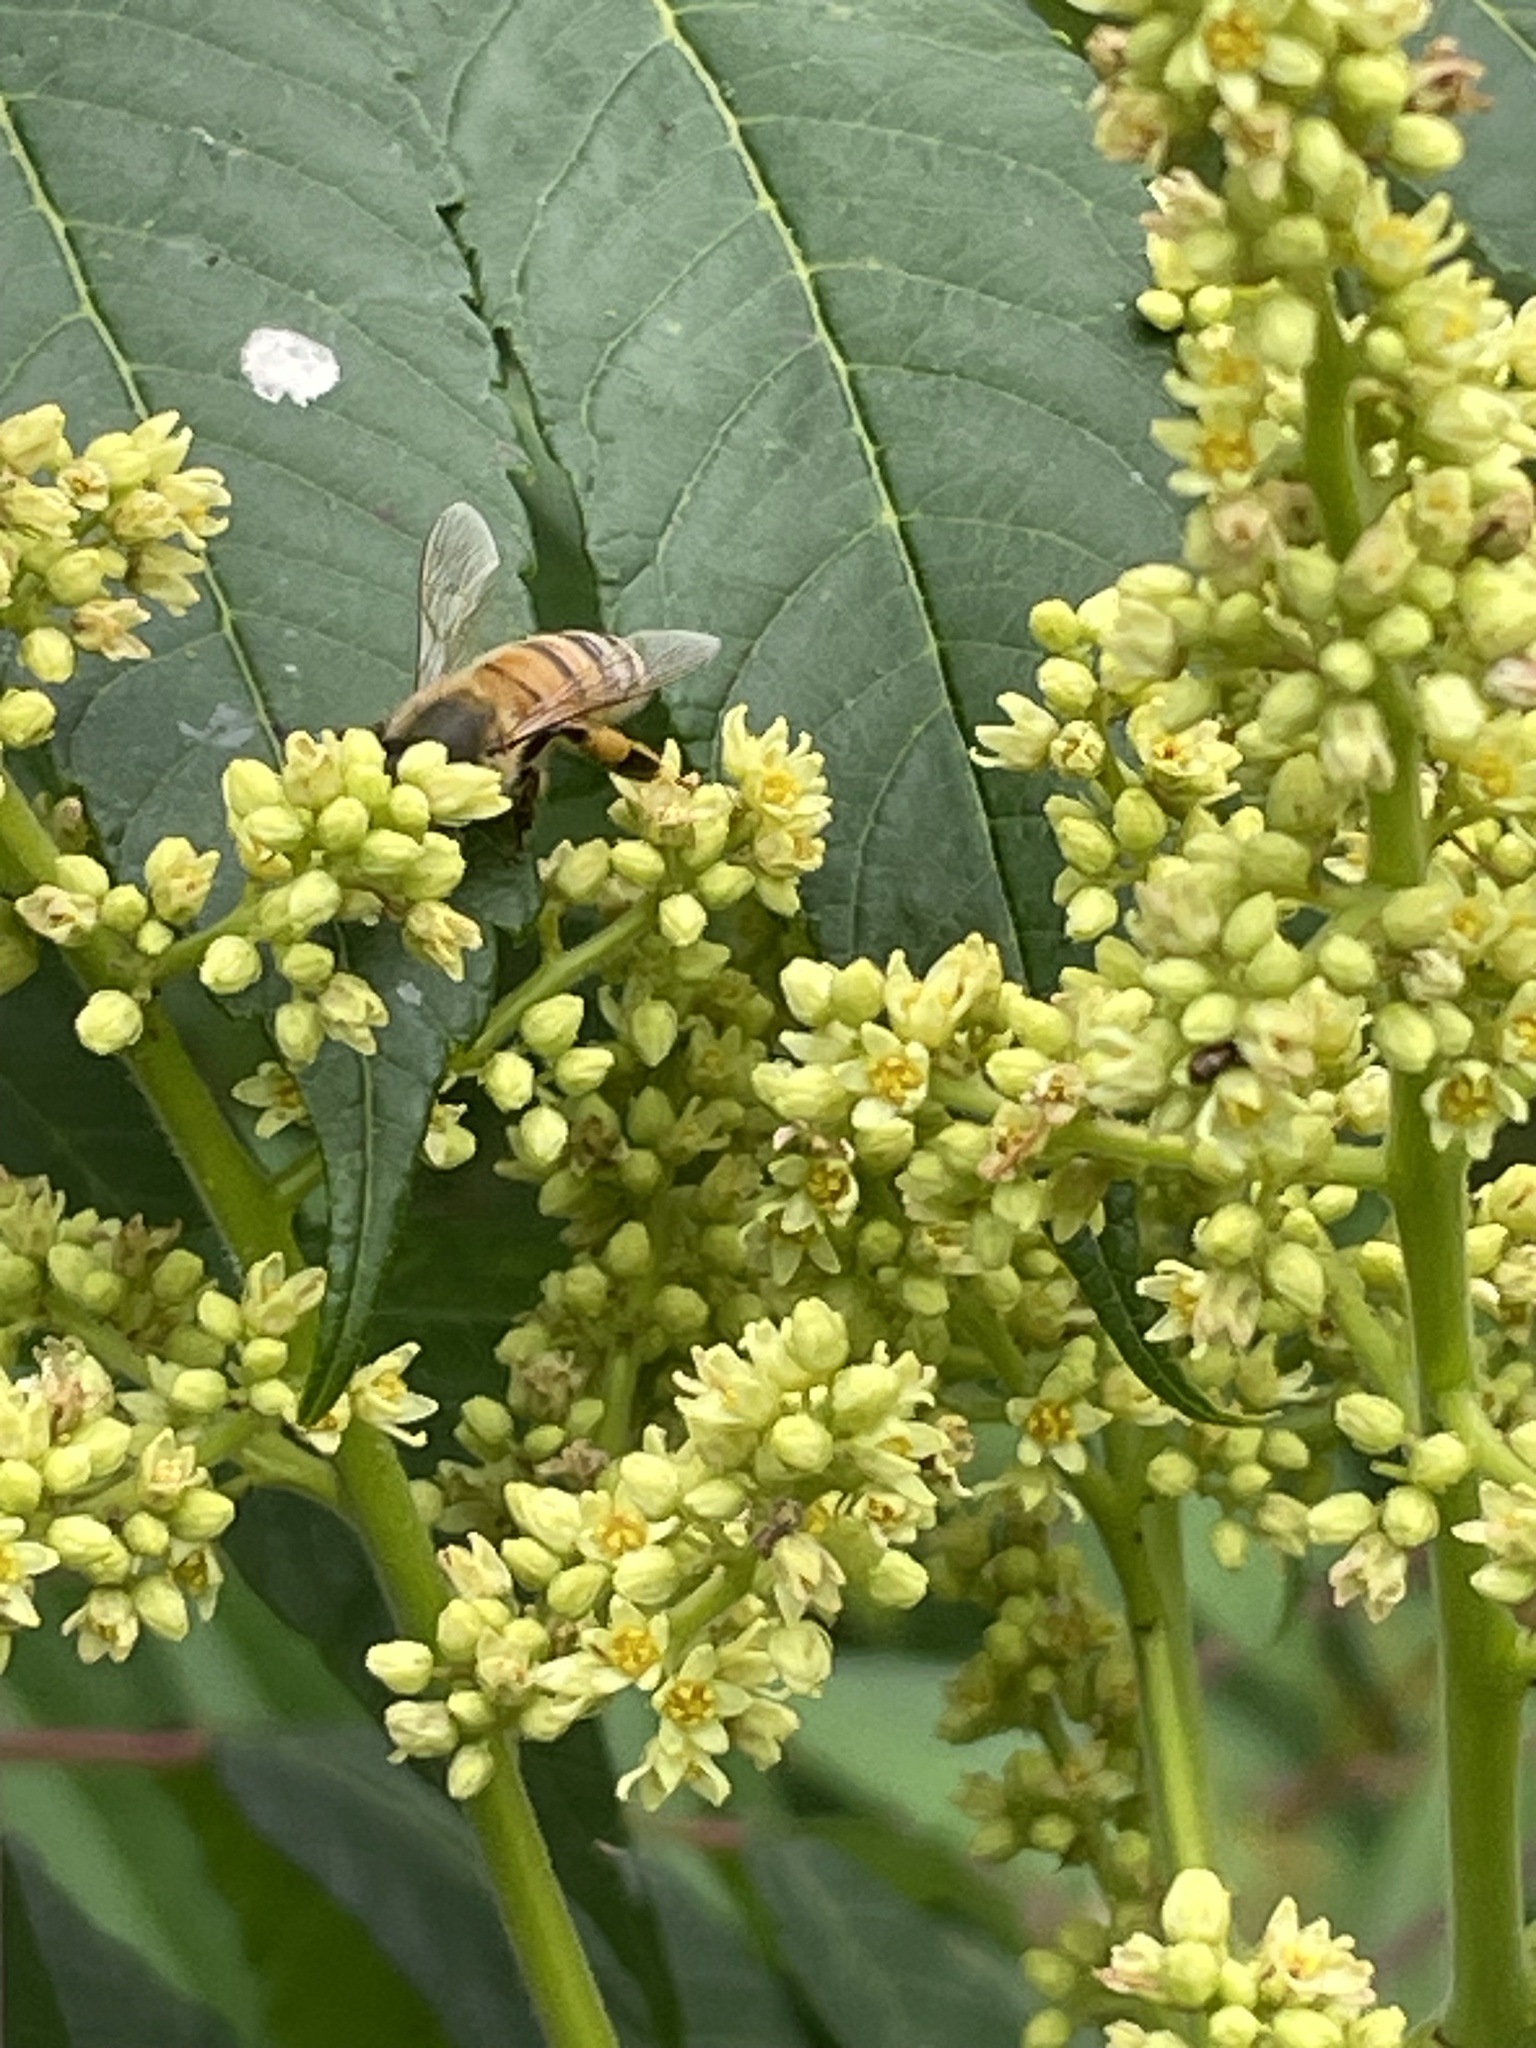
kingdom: Animalia
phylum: Arthropoda
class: Insecta
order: Hymenoptera
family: Apidae
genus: Apis
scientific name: Apis mellifera
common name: Honey bee
